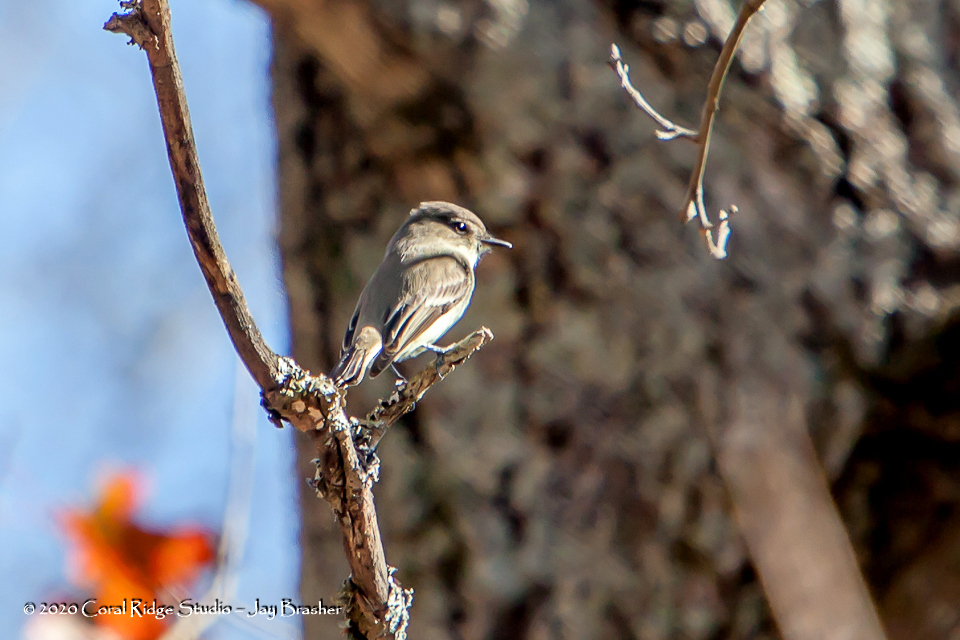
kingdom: Animalia
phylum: Chordata
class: Aves
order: Passeriformes
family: Tyrannidae
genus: Sayornis
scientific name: Sayornis phoebe
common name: Eastern phoebe
